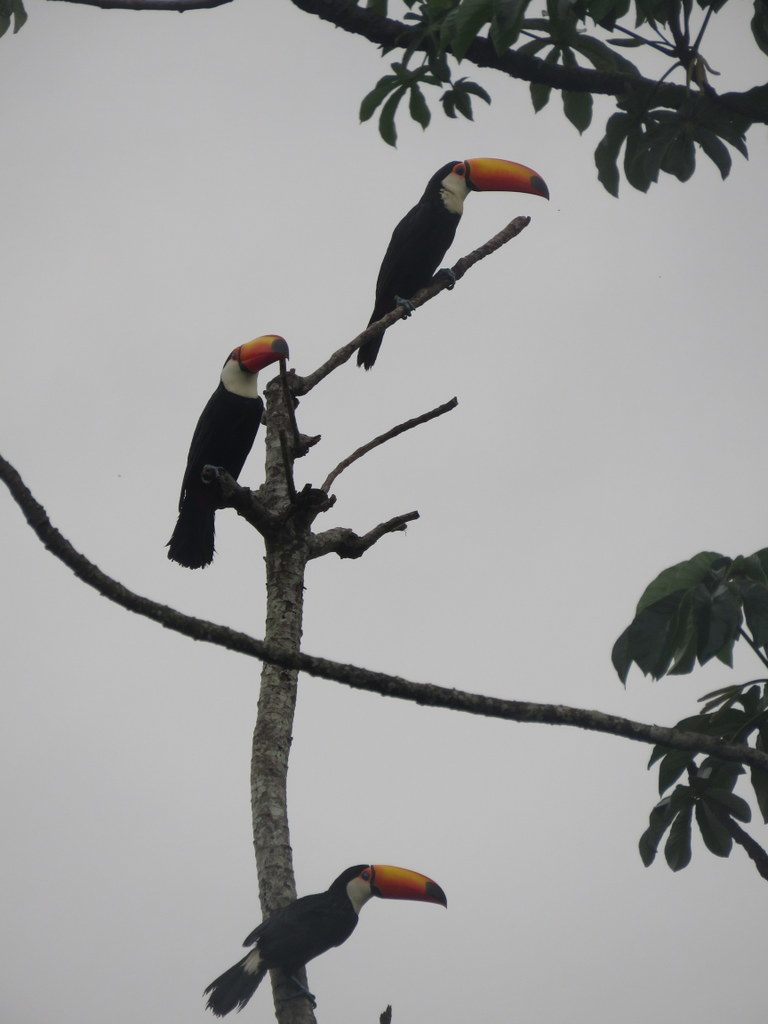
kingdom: Animalia
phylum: Chordata
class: Aves
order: Piciformes
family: Ramphastidae
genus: Ramphastos
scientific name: Ramphastos toco
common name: Toco toucan
